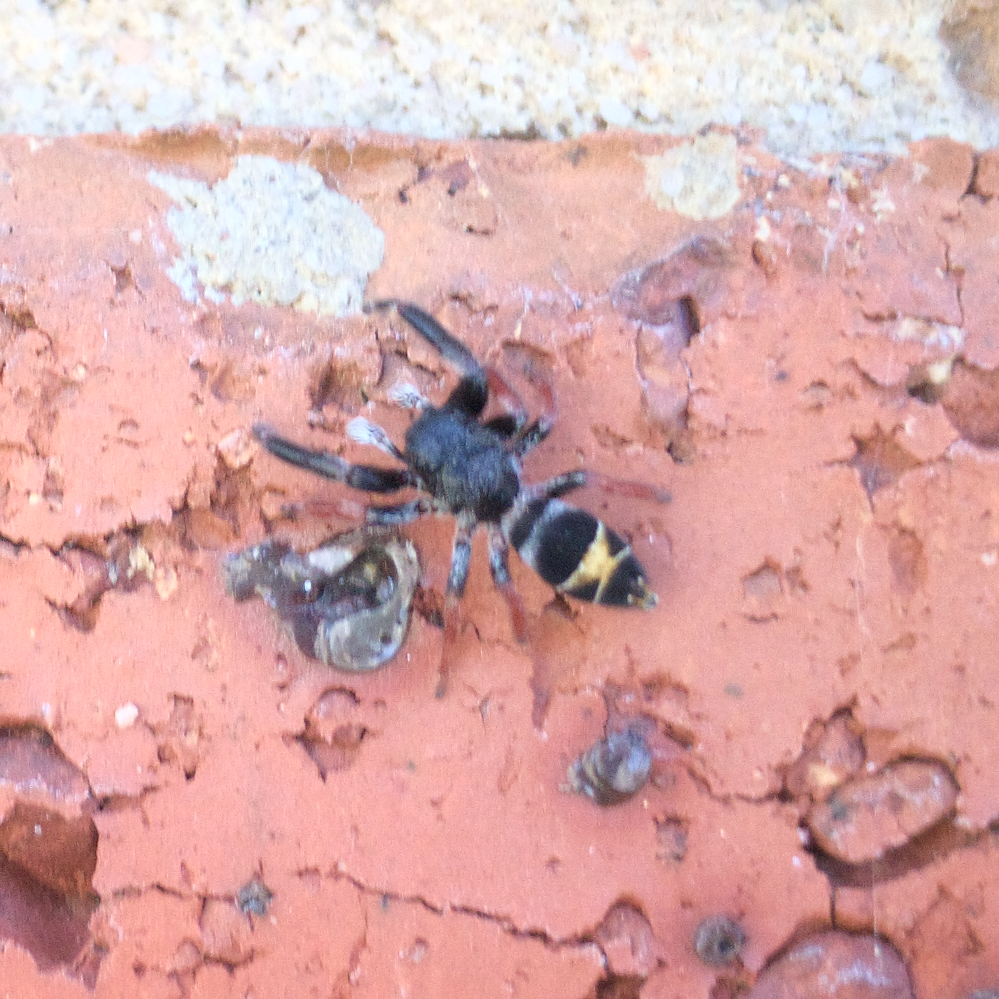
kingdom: Animalia
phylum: Arthropoda
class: Arachnida
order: Araneae
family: Salticidae
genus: Apricia
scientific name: Apricia jovialis
